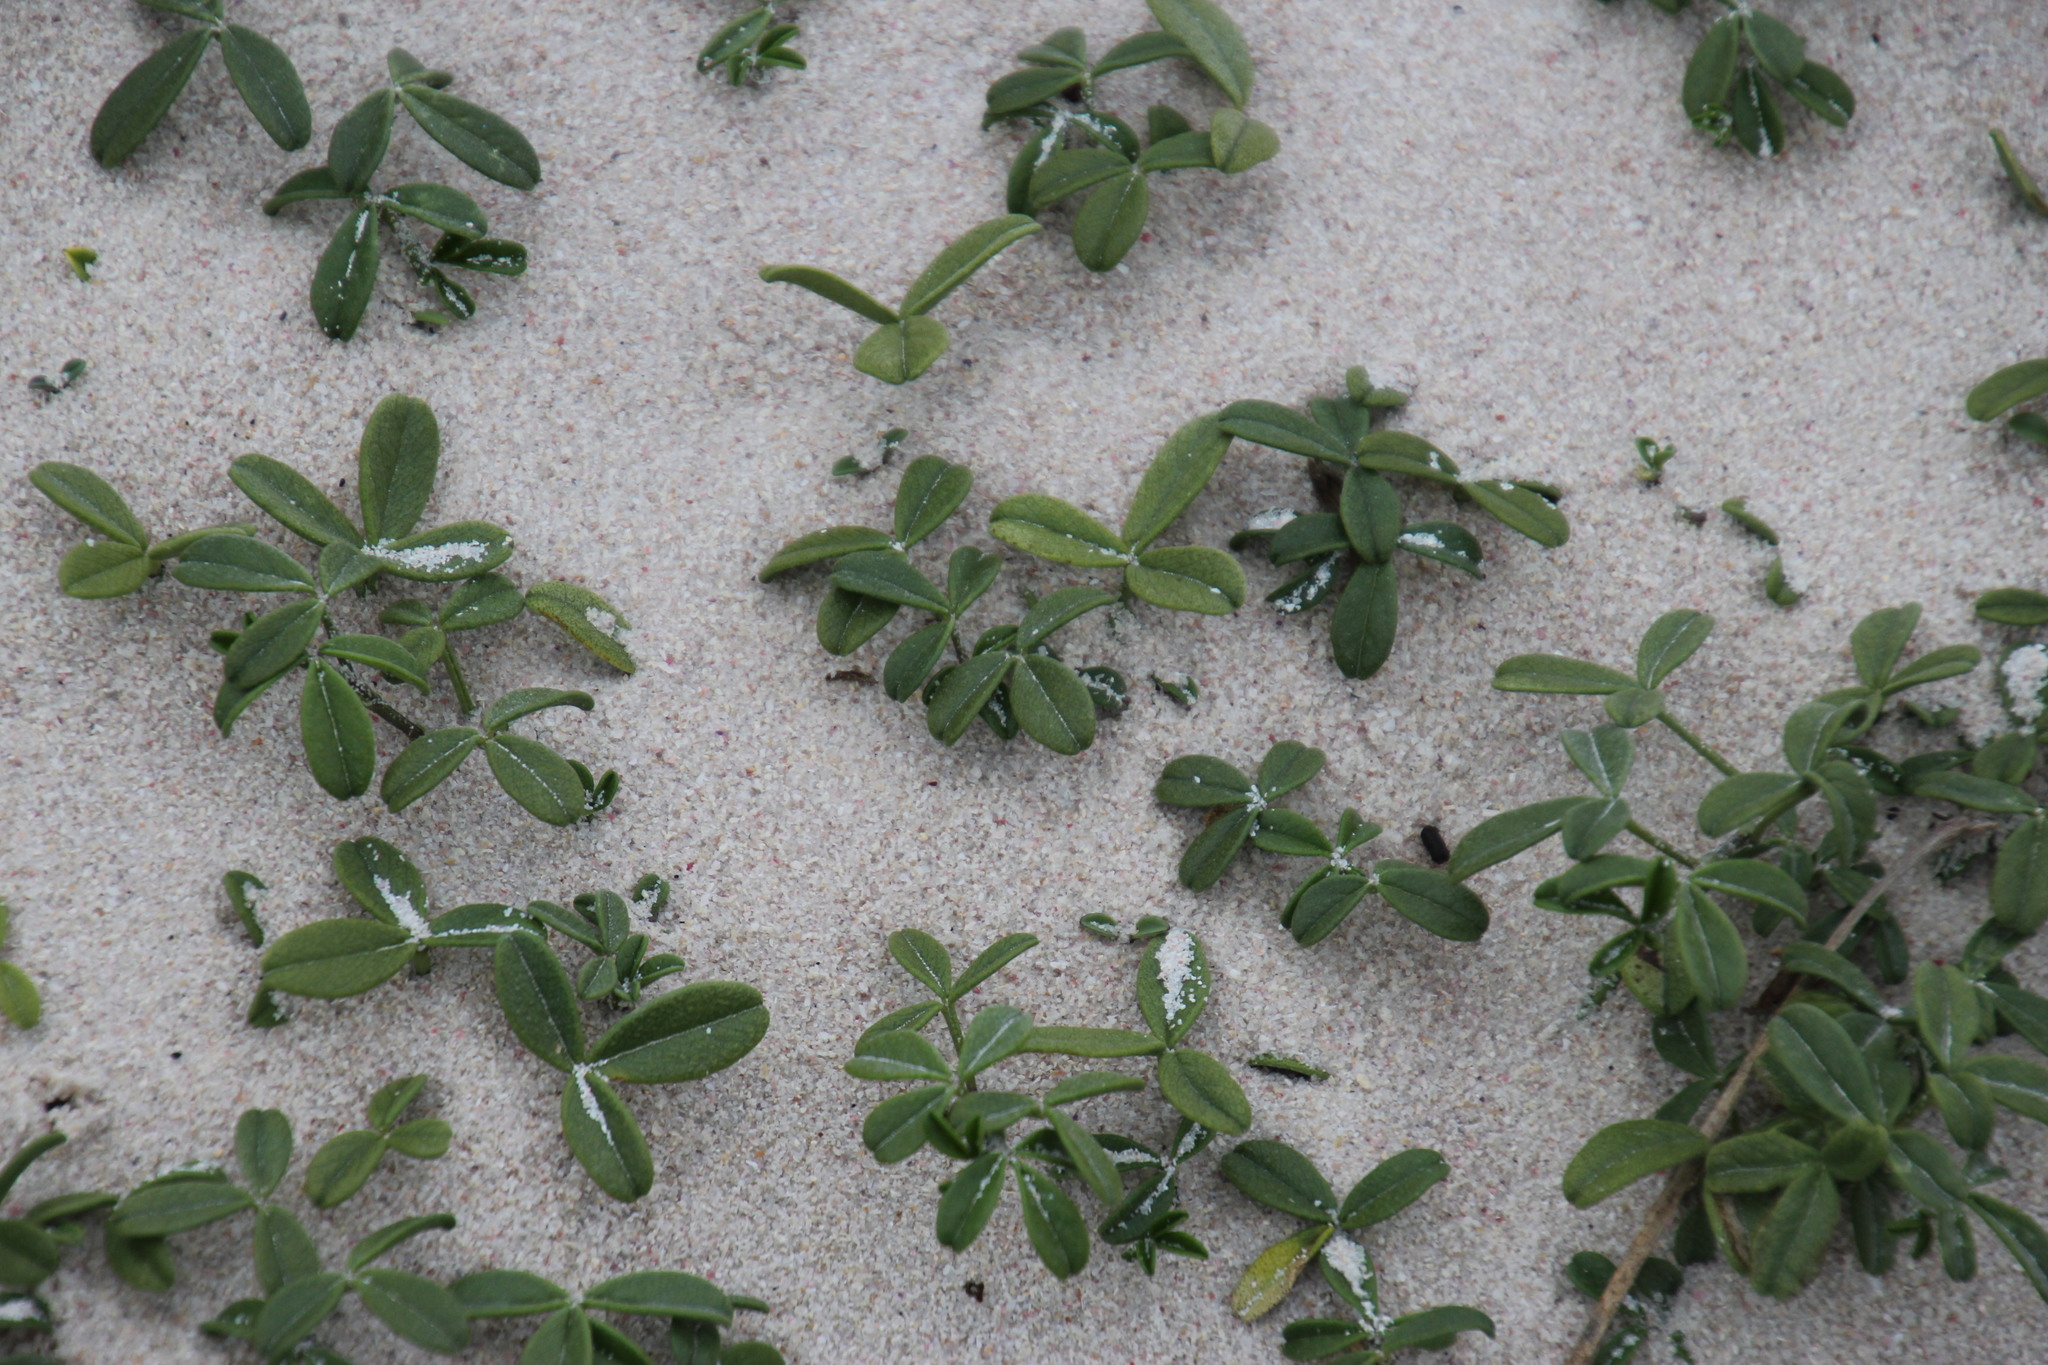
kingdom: Plantae
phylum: Tracheophyta
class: Magnoliopsida
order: Fabales
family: Fabaceae
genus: Psoralea
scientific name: Psoralea repens
